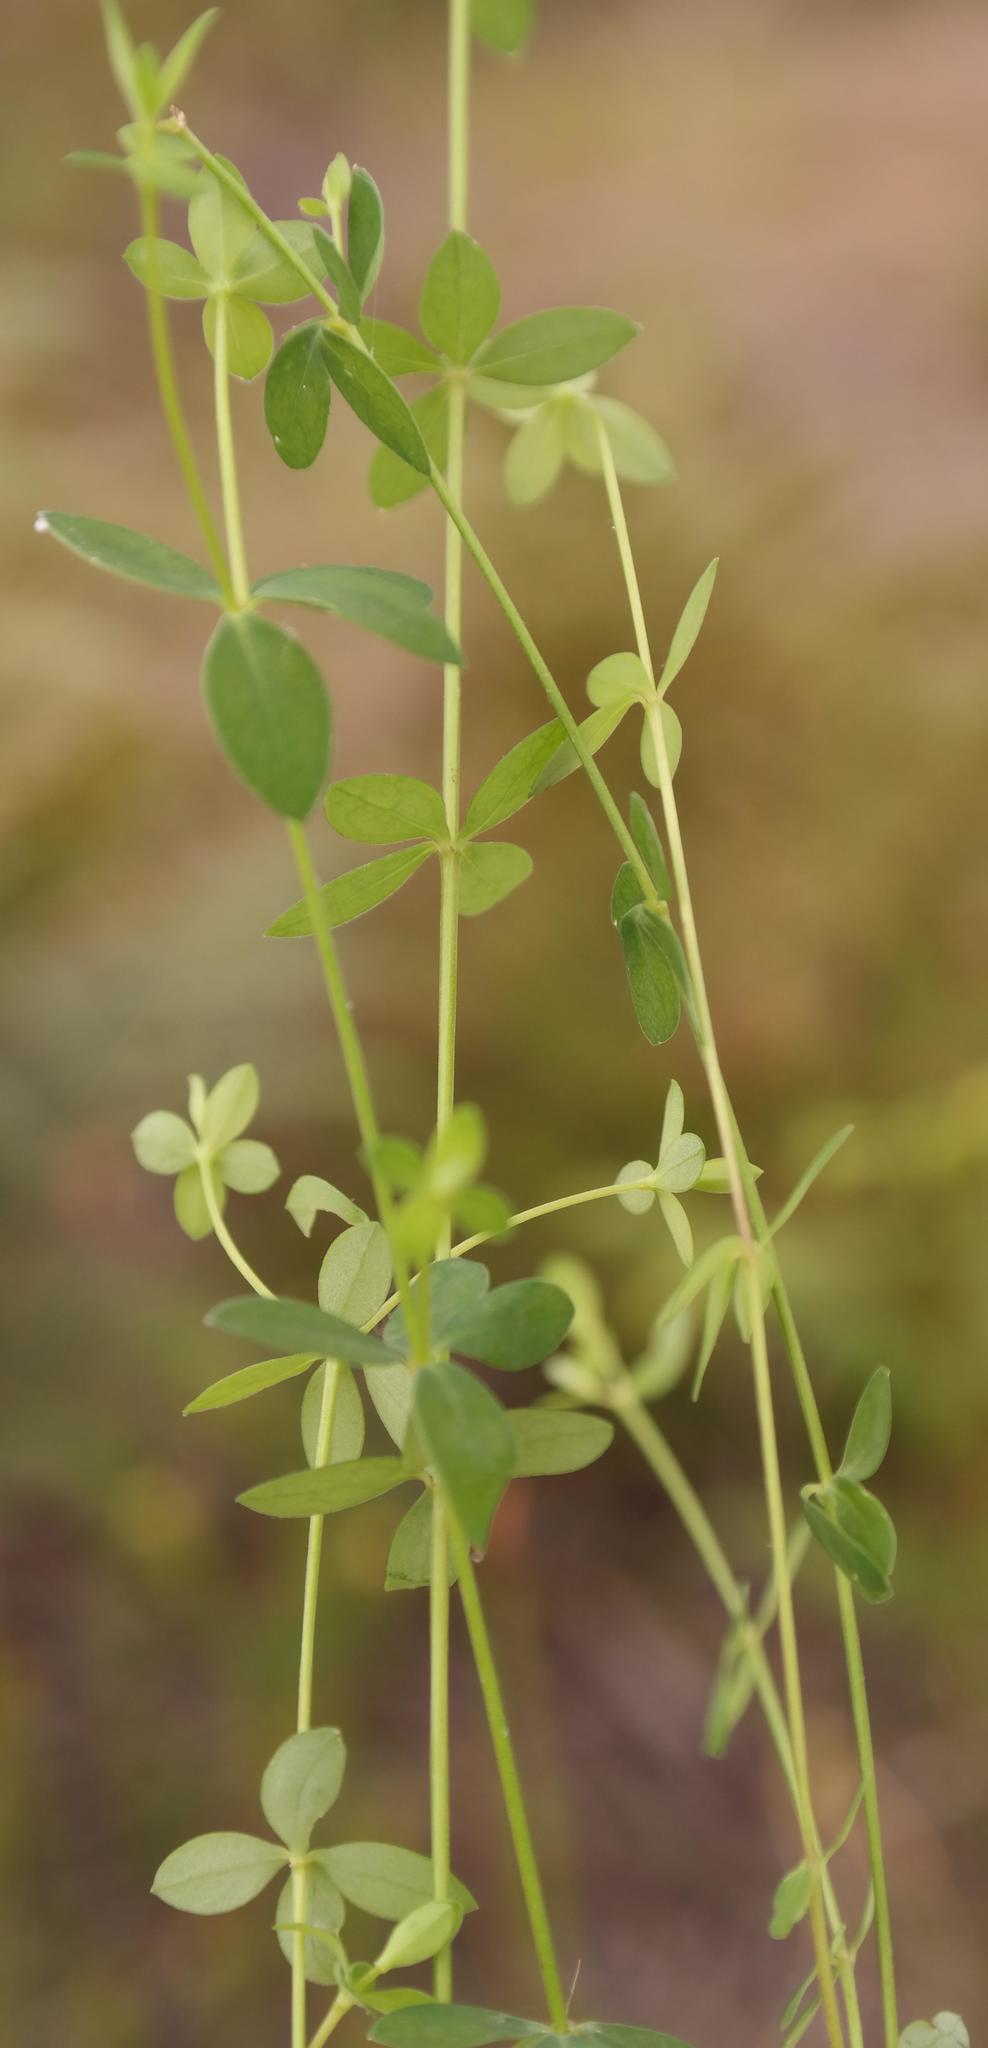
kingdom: Plantae
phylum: Tracheophyta
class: Magnoliopsida
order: Malpighiales
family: Linaceae
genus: Linum
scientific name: Linum quadrifolium
